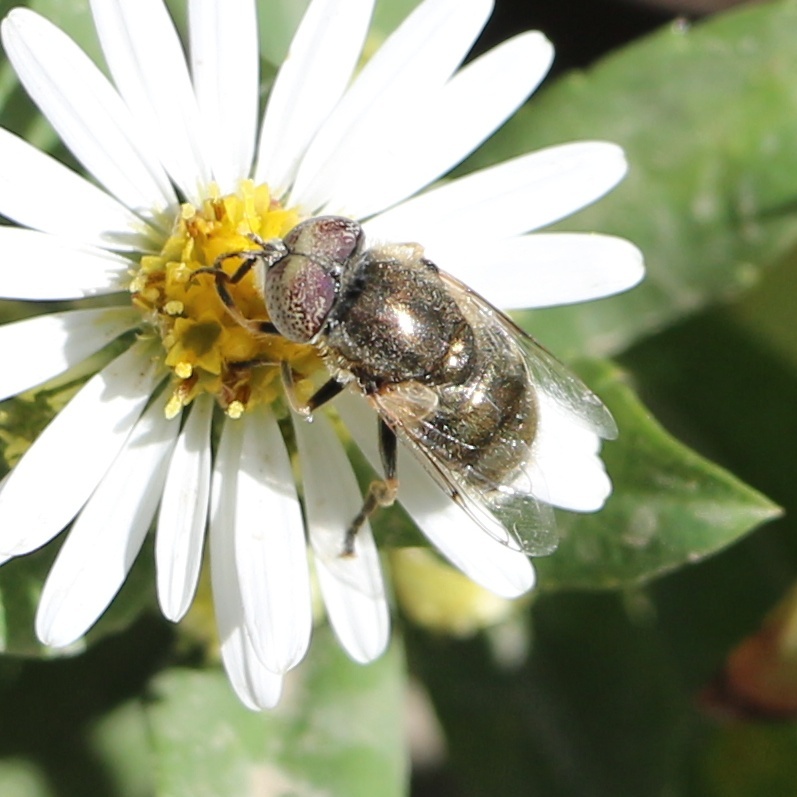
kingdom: Animalia
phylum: Arthropoda
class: Insecta
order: Diptera
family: Syrphidae
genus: Eristalinus
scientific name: Eristalinus aeneus
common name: Syrphid fly
